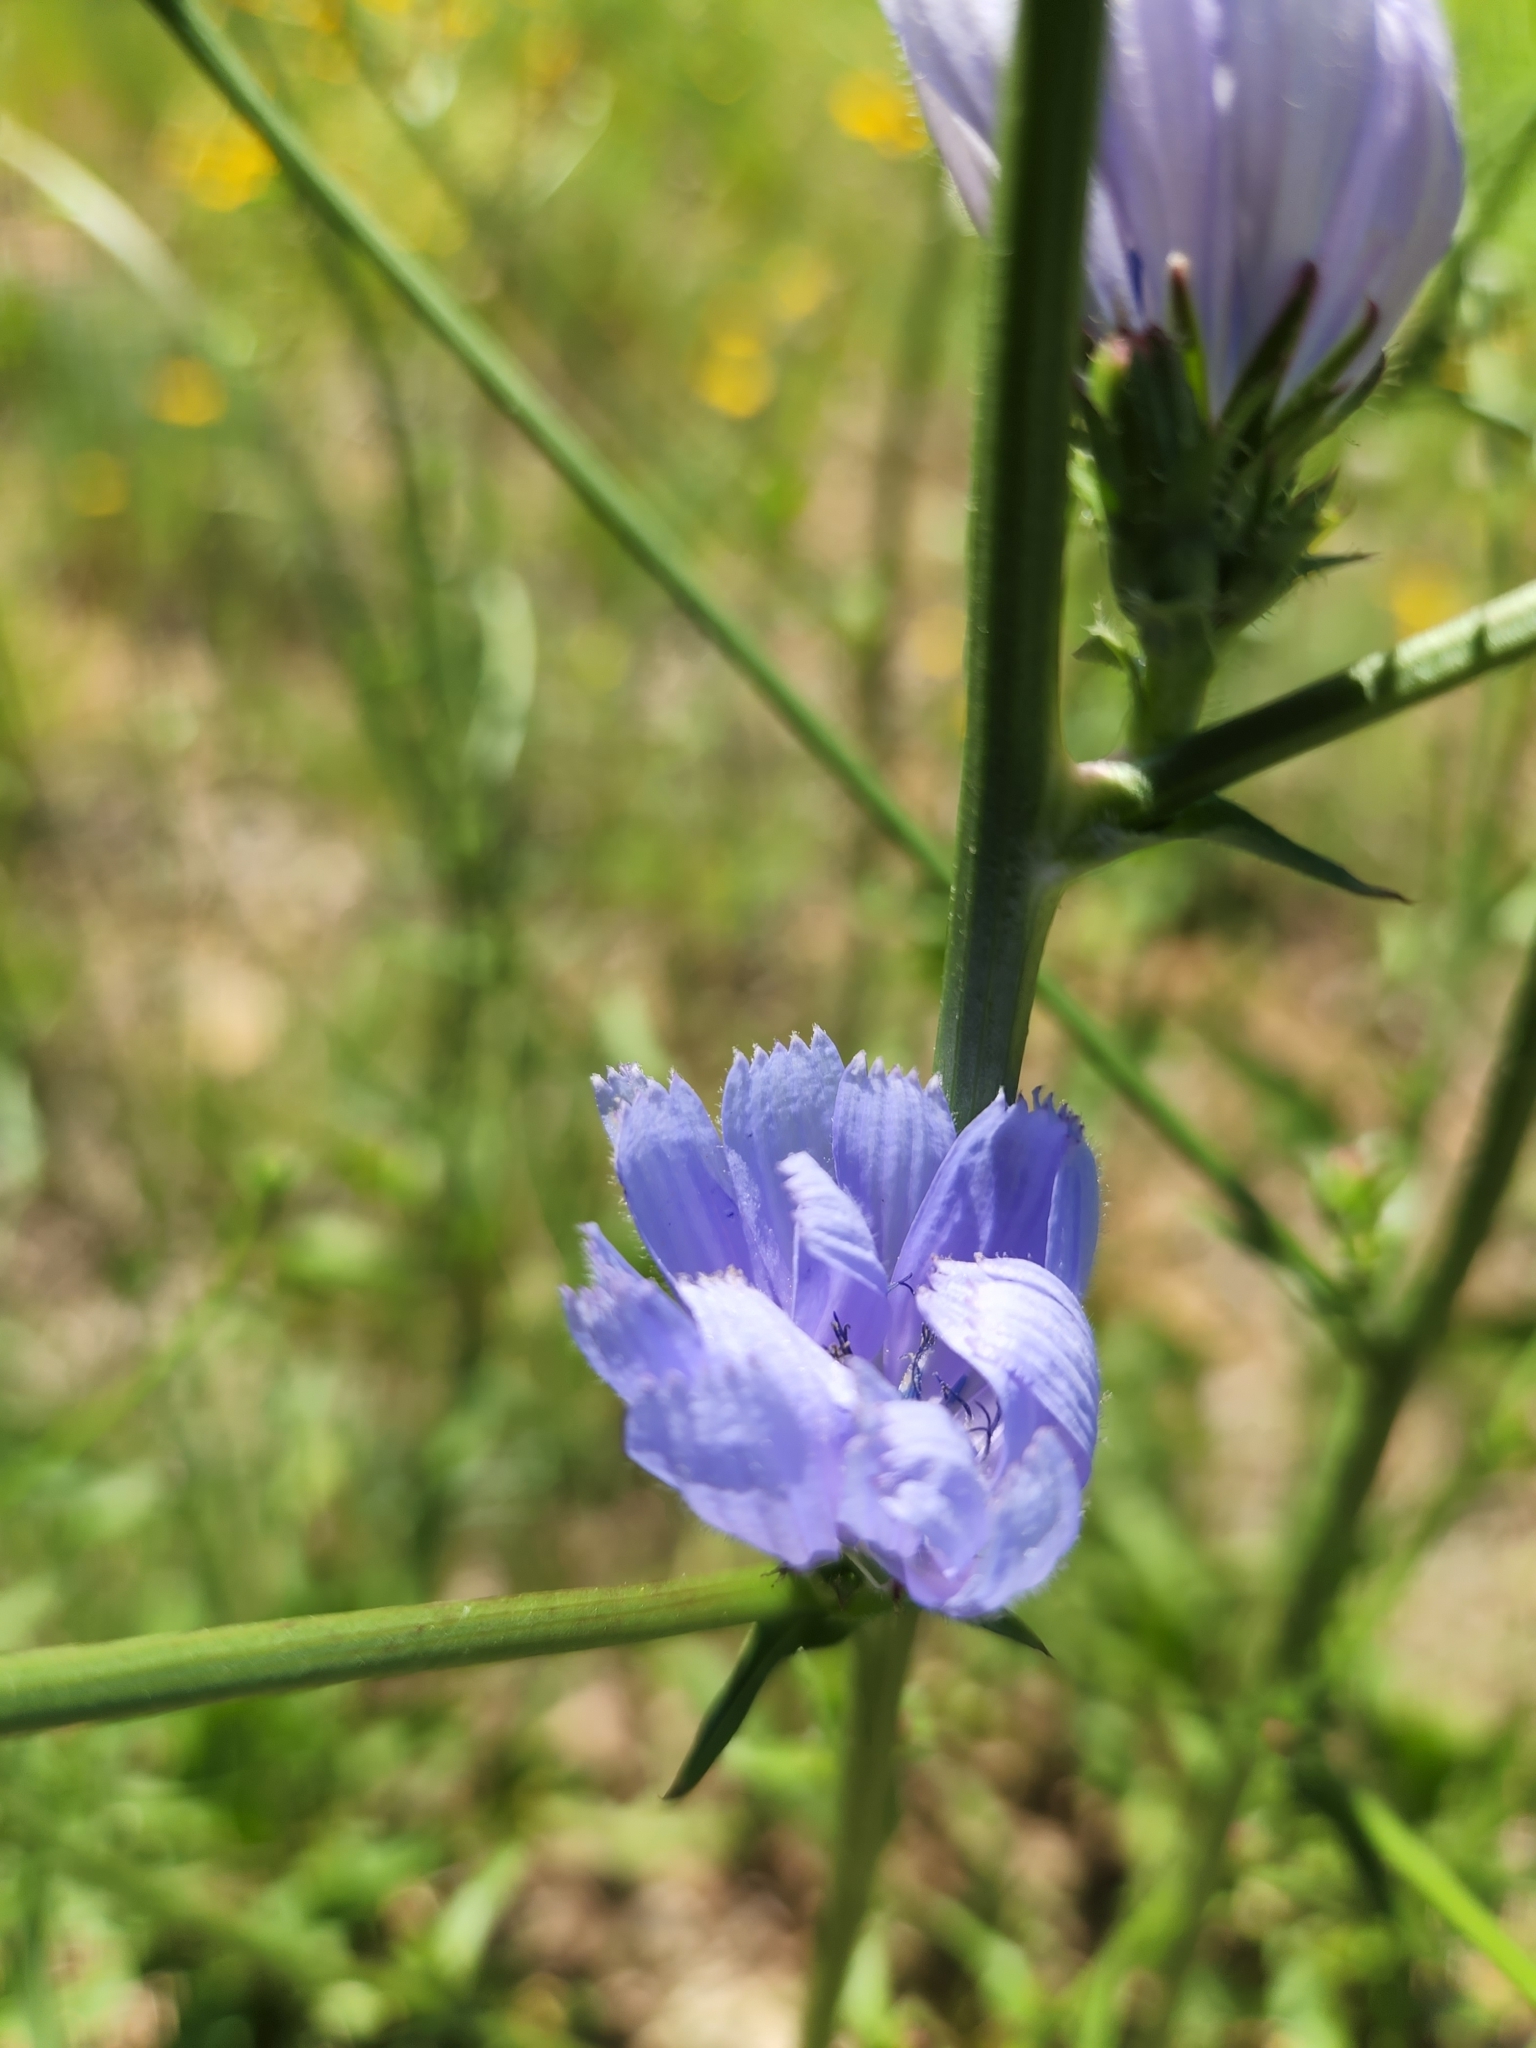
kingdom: Plantae
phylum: Tracheophyta
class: Magnoliopsida
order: Asterales
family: Asteraceae
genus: Cichorium
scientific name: Cichorium intybus
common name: Chicory
